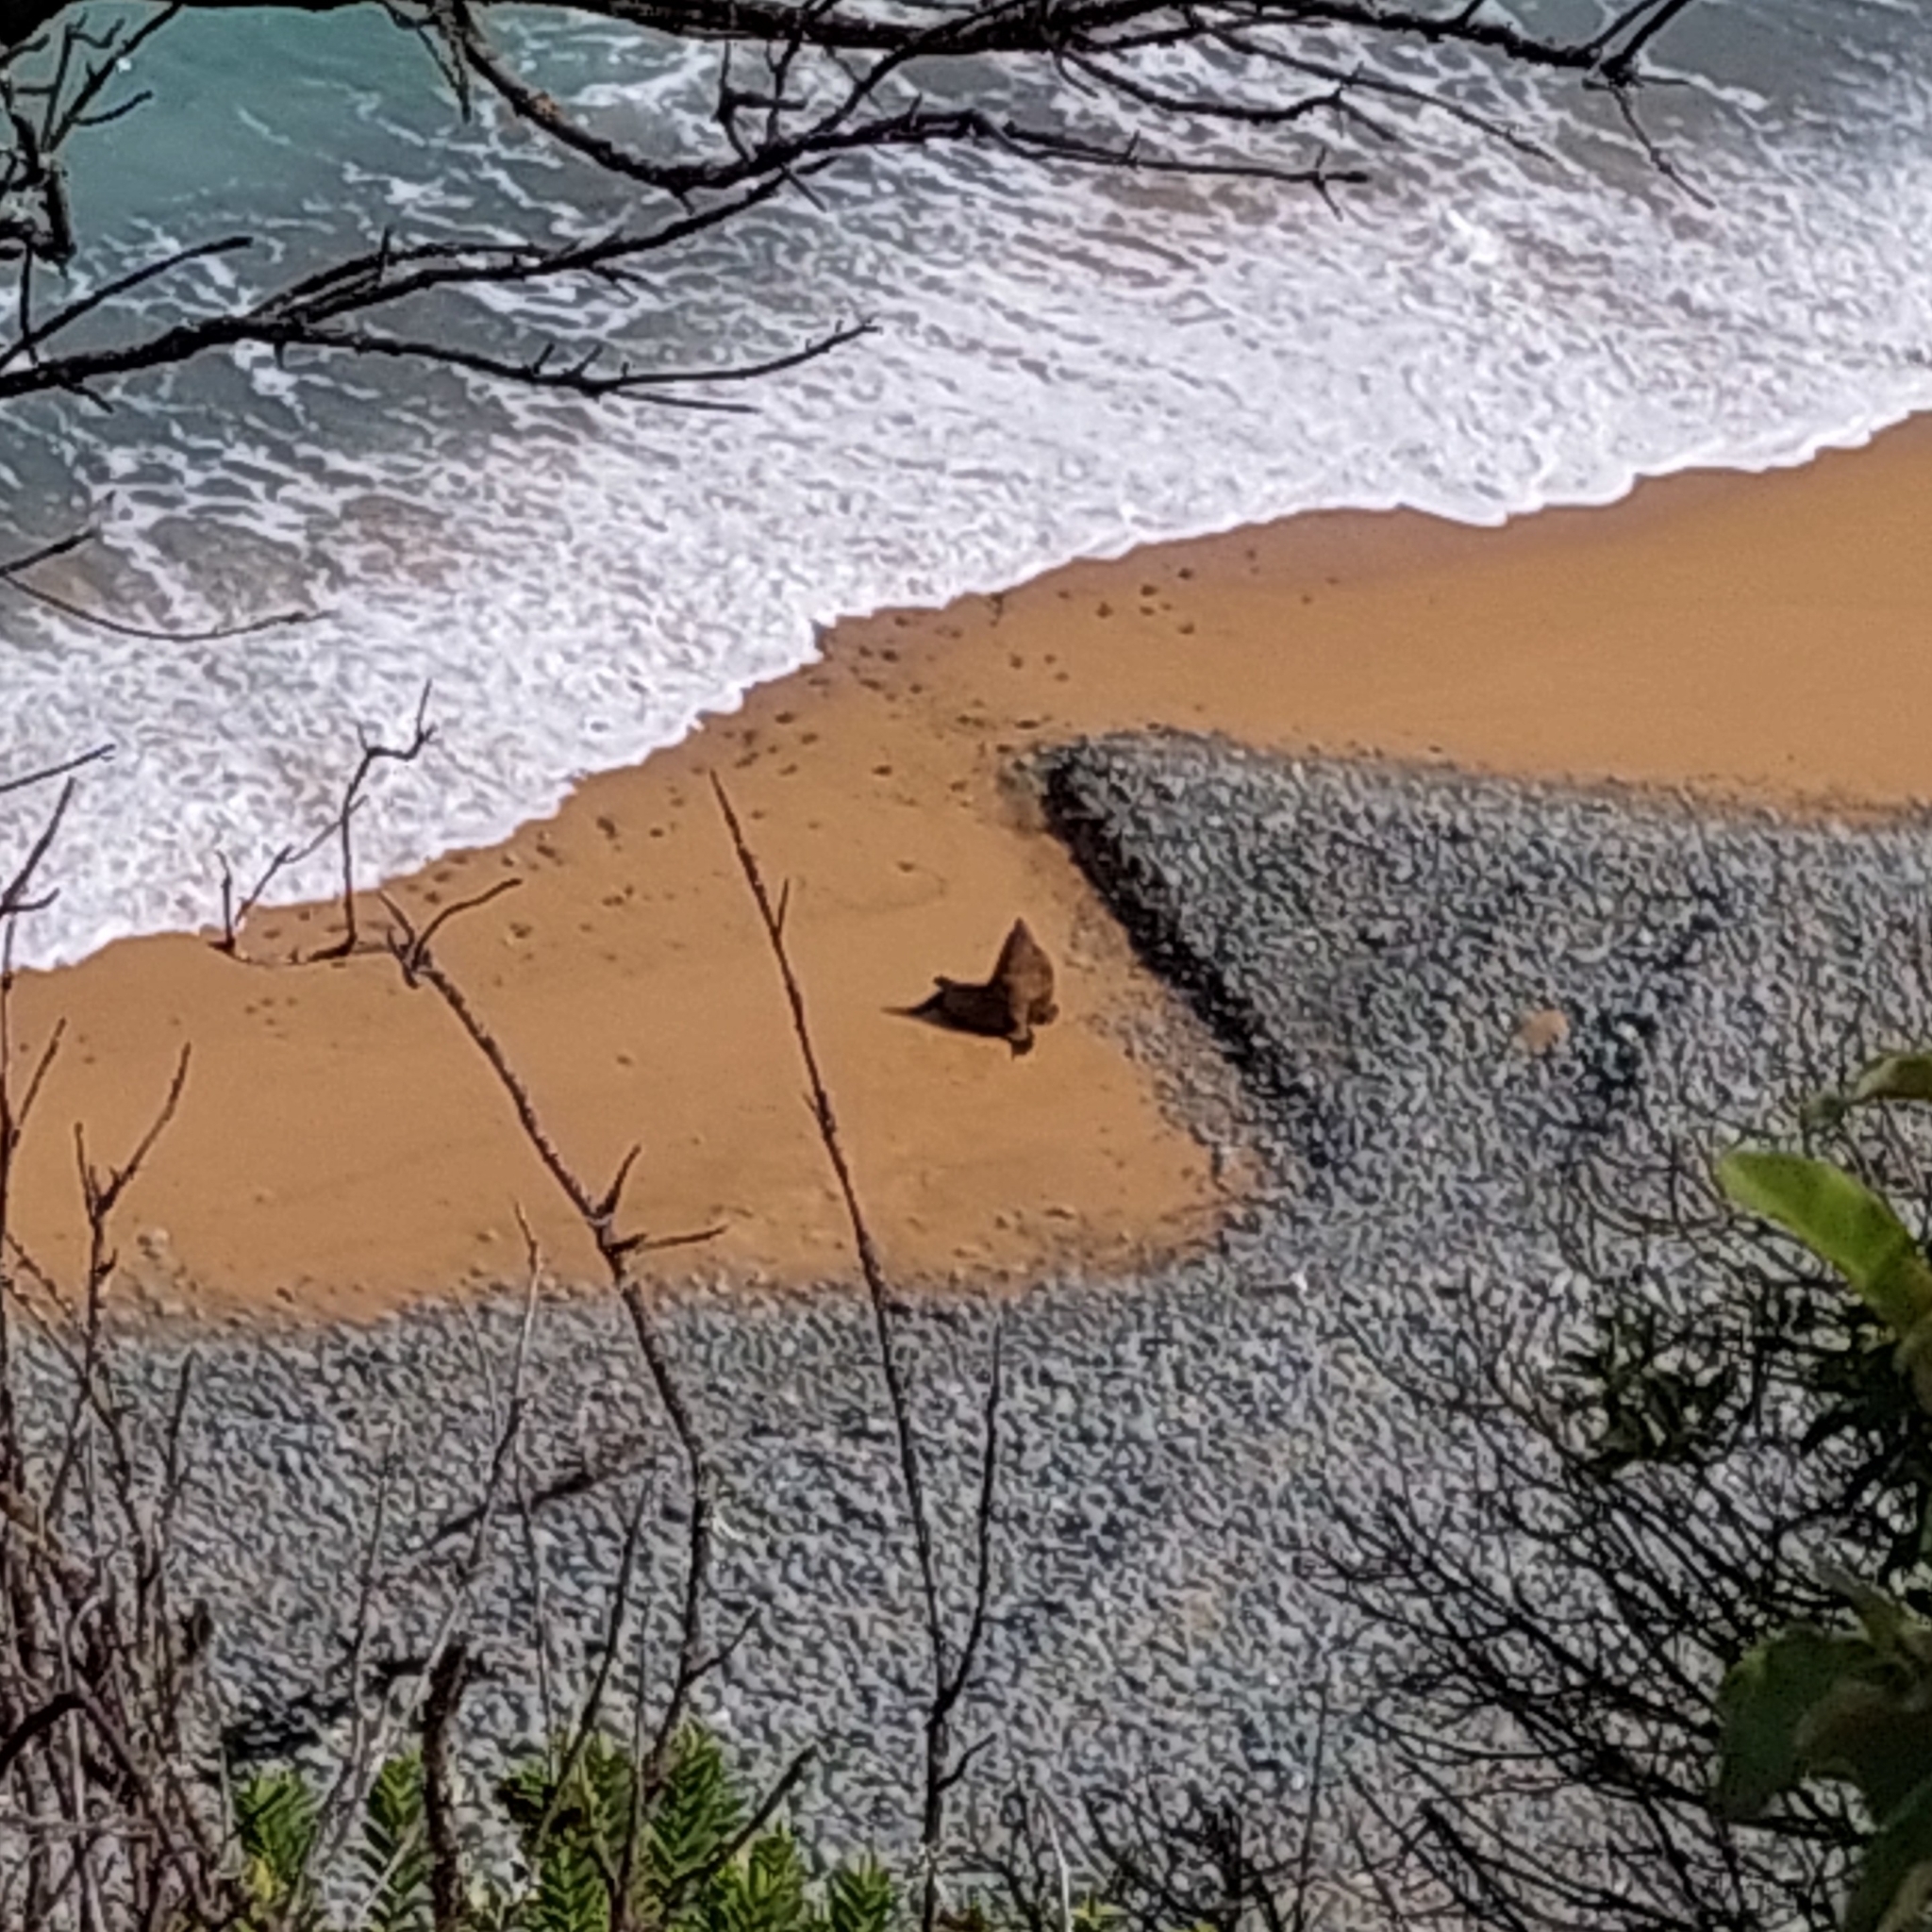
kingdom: Animalia
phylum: Chordata
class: Mammalia
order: Carnivora
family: Otariidae
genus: Arctocephalus
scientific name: Arctocephalus forsteri
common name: New zealand fur seal
